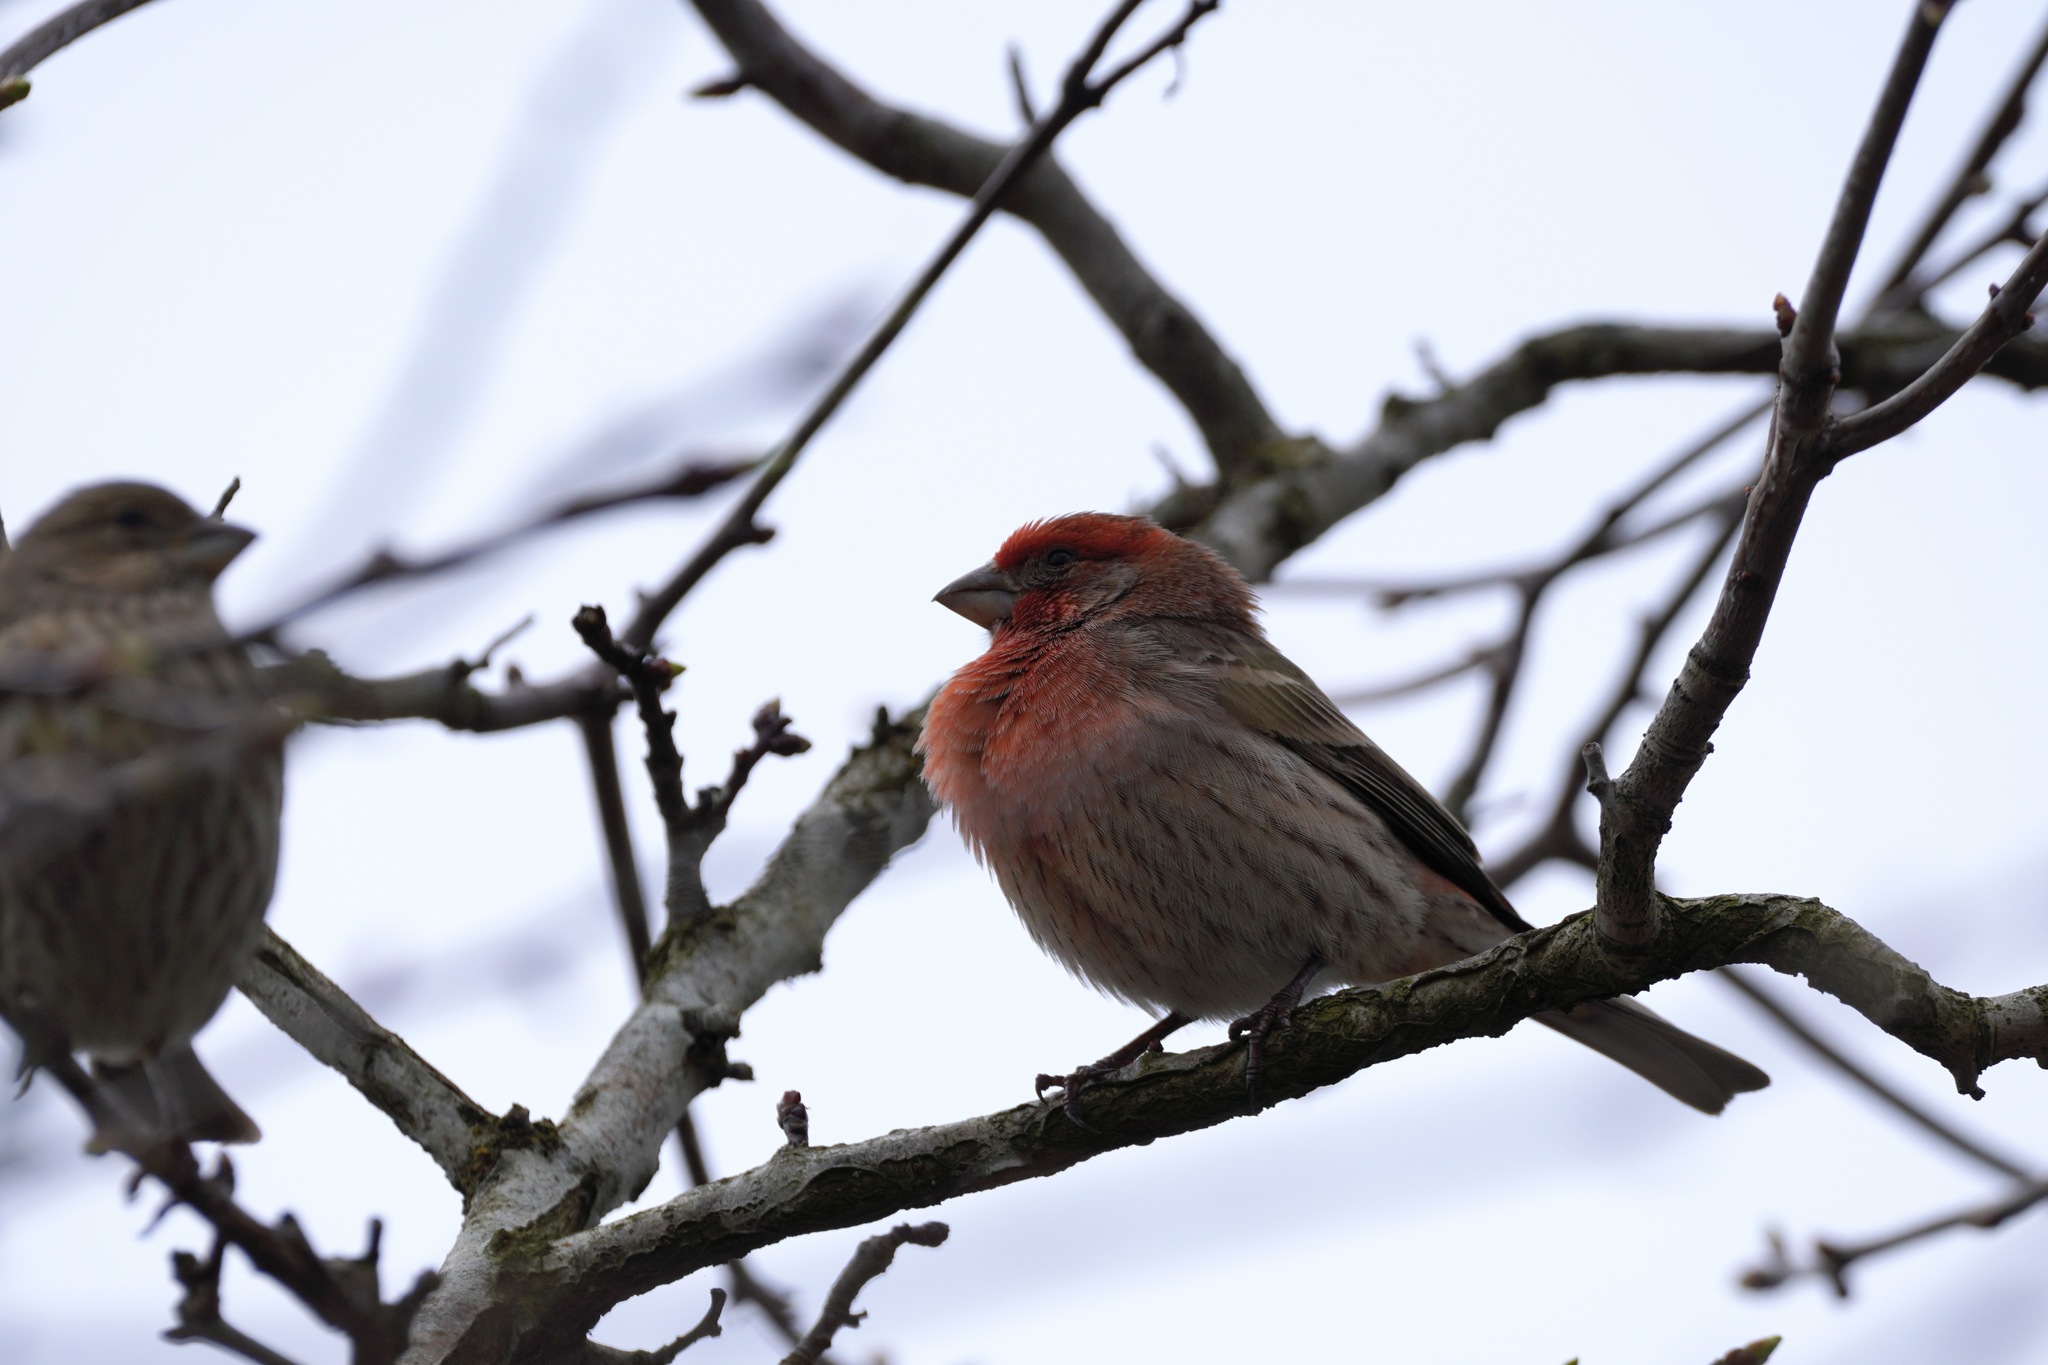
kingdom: Animalia
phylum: Chordata
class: Aves
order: Passeriformes
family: Fringillidae
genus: Haemorhous
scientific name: Haemorhous mexicanus
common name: House finch
